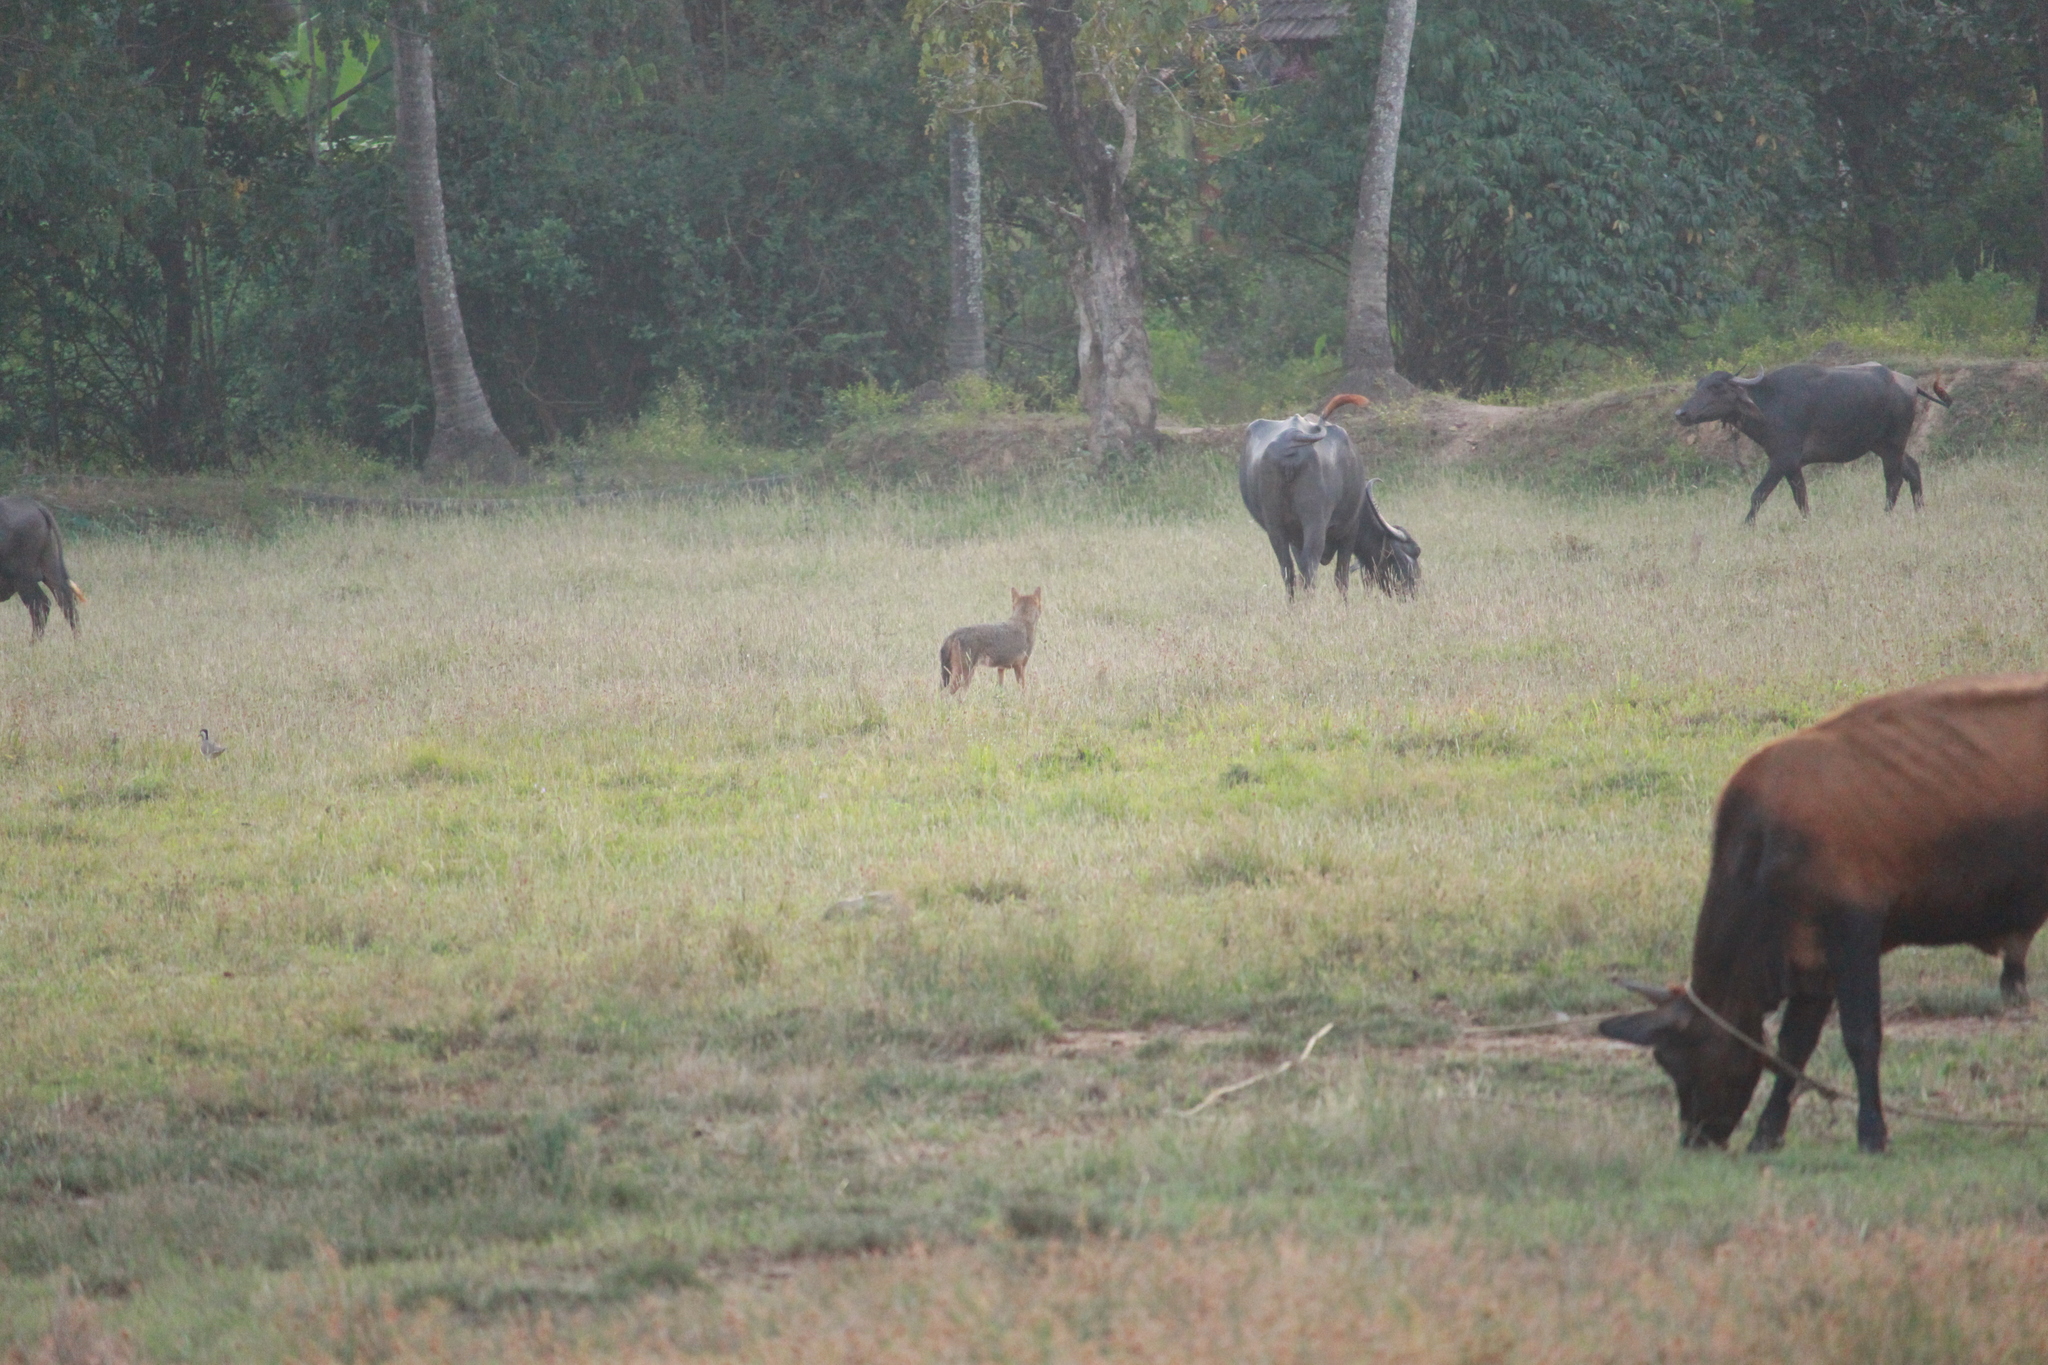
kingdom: Animalia
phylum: Chordata
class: Mammalia
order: Carnivora
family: Canidae
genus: Canis
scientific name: Canis aureus
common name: Golden jackal
